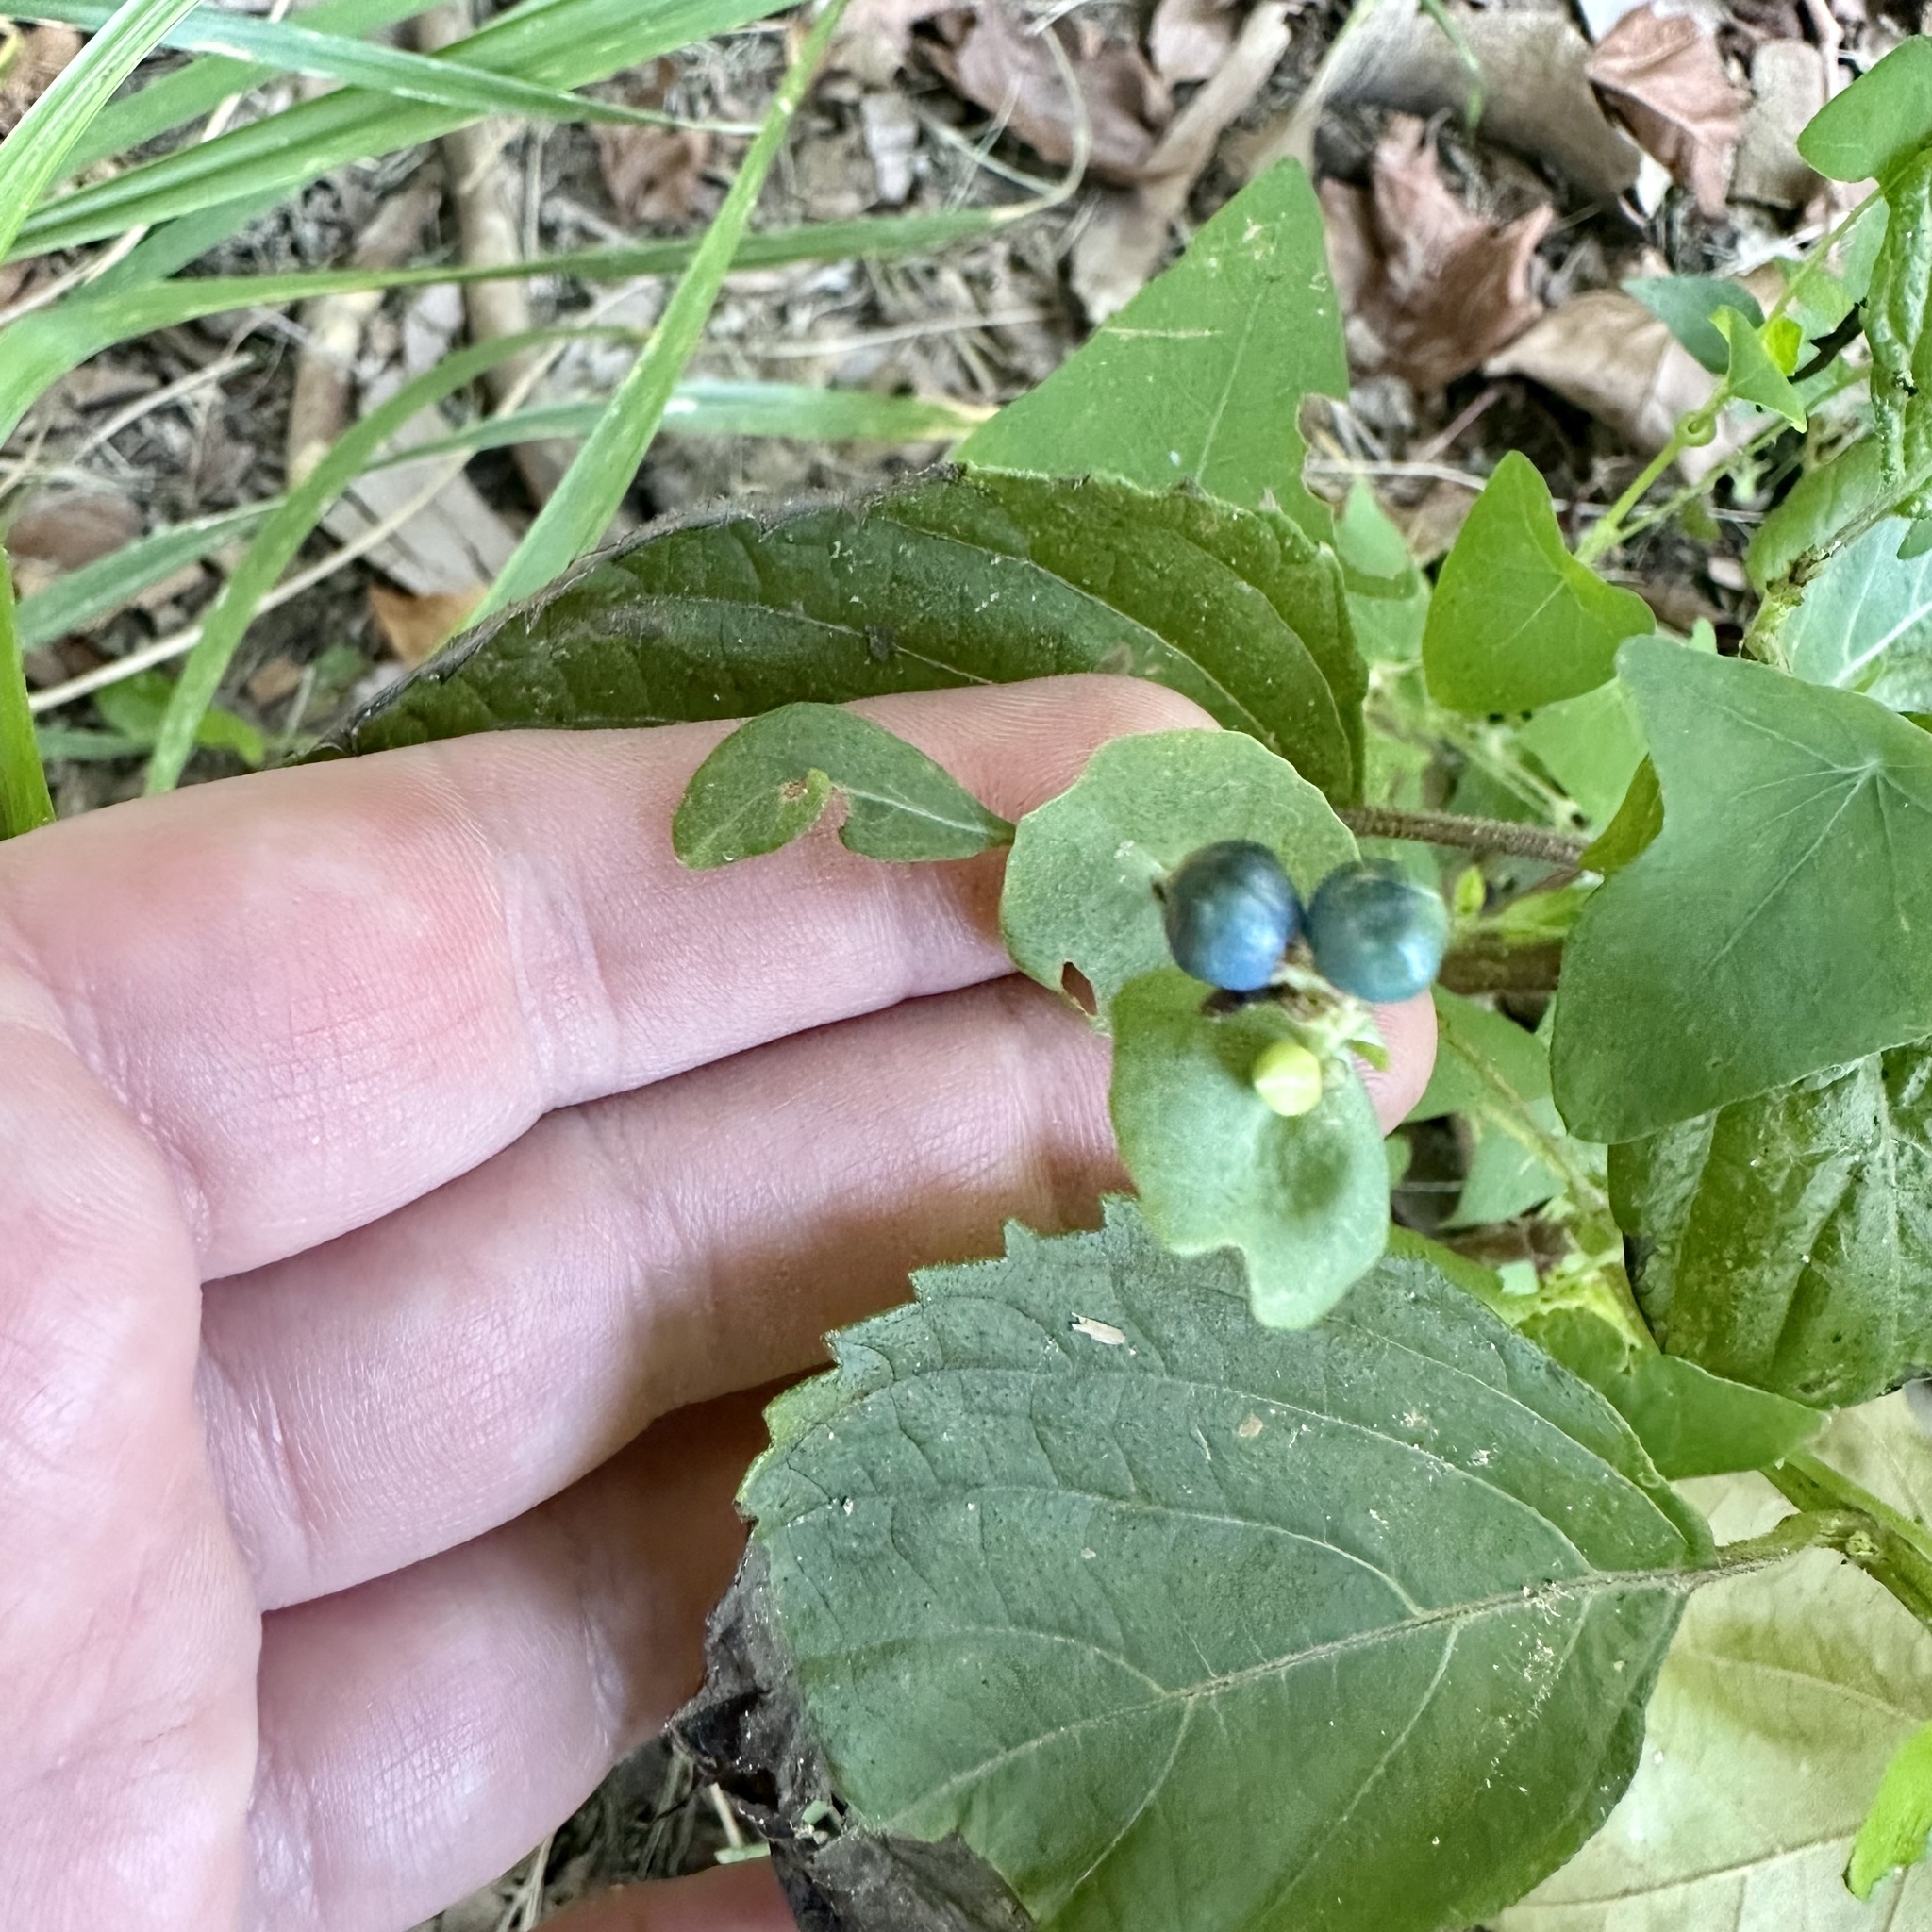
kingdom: Plantae
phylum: Tracheophyta
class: Magnoliopsida
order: Caryophyllales
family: Polygonaceae
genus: Persicaria
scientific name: Persicaria perfoliata
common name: Asiatic tearthumb
